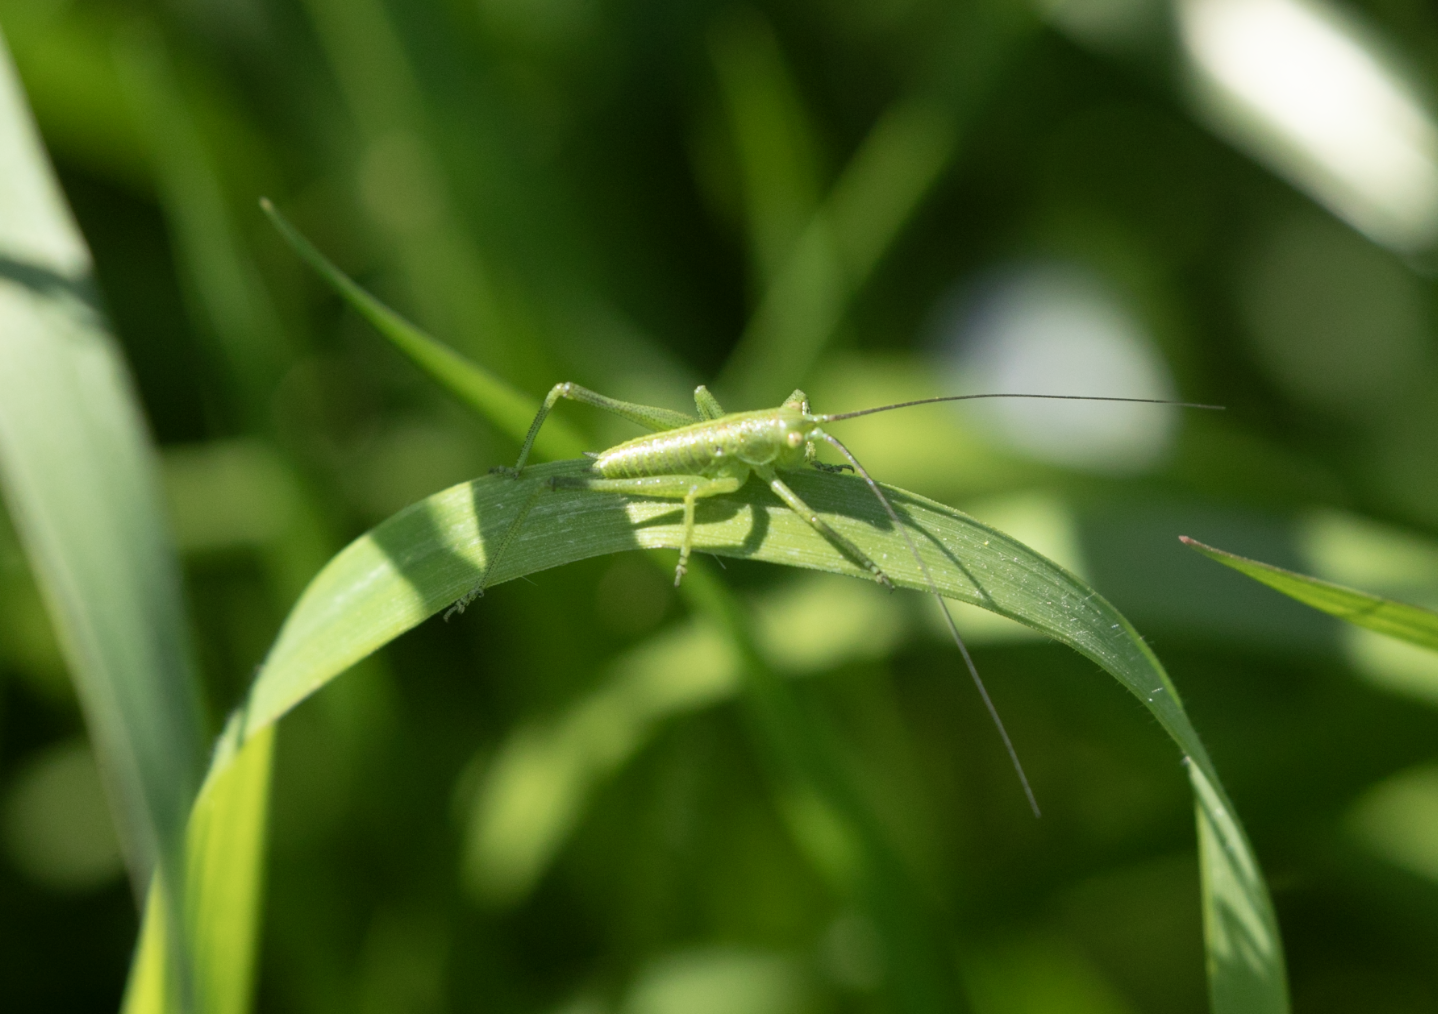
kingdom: Animalia
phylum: Arthropoda
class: Insecta
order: Orthoptera
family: Tettigoniidae
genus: Tettigonia
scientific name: Tettigonia viridissima
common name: Great green bush-cricket
